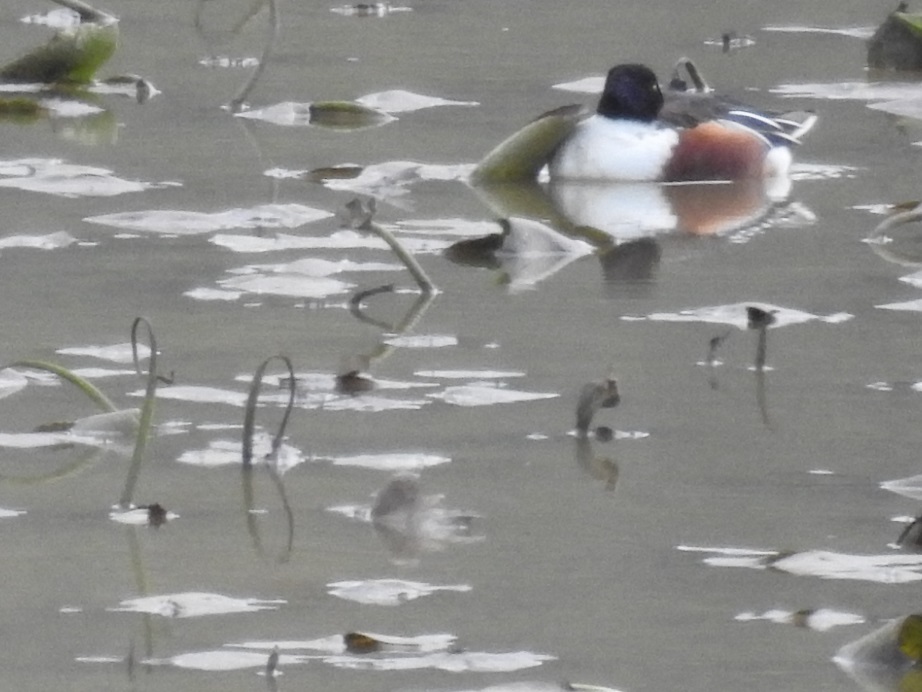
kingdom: Animalia
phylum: Chordata
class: Aves
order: Anseriformes
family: Anatidae
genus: Spatula
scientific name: Spatula clypeata
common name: Northern shoveler
